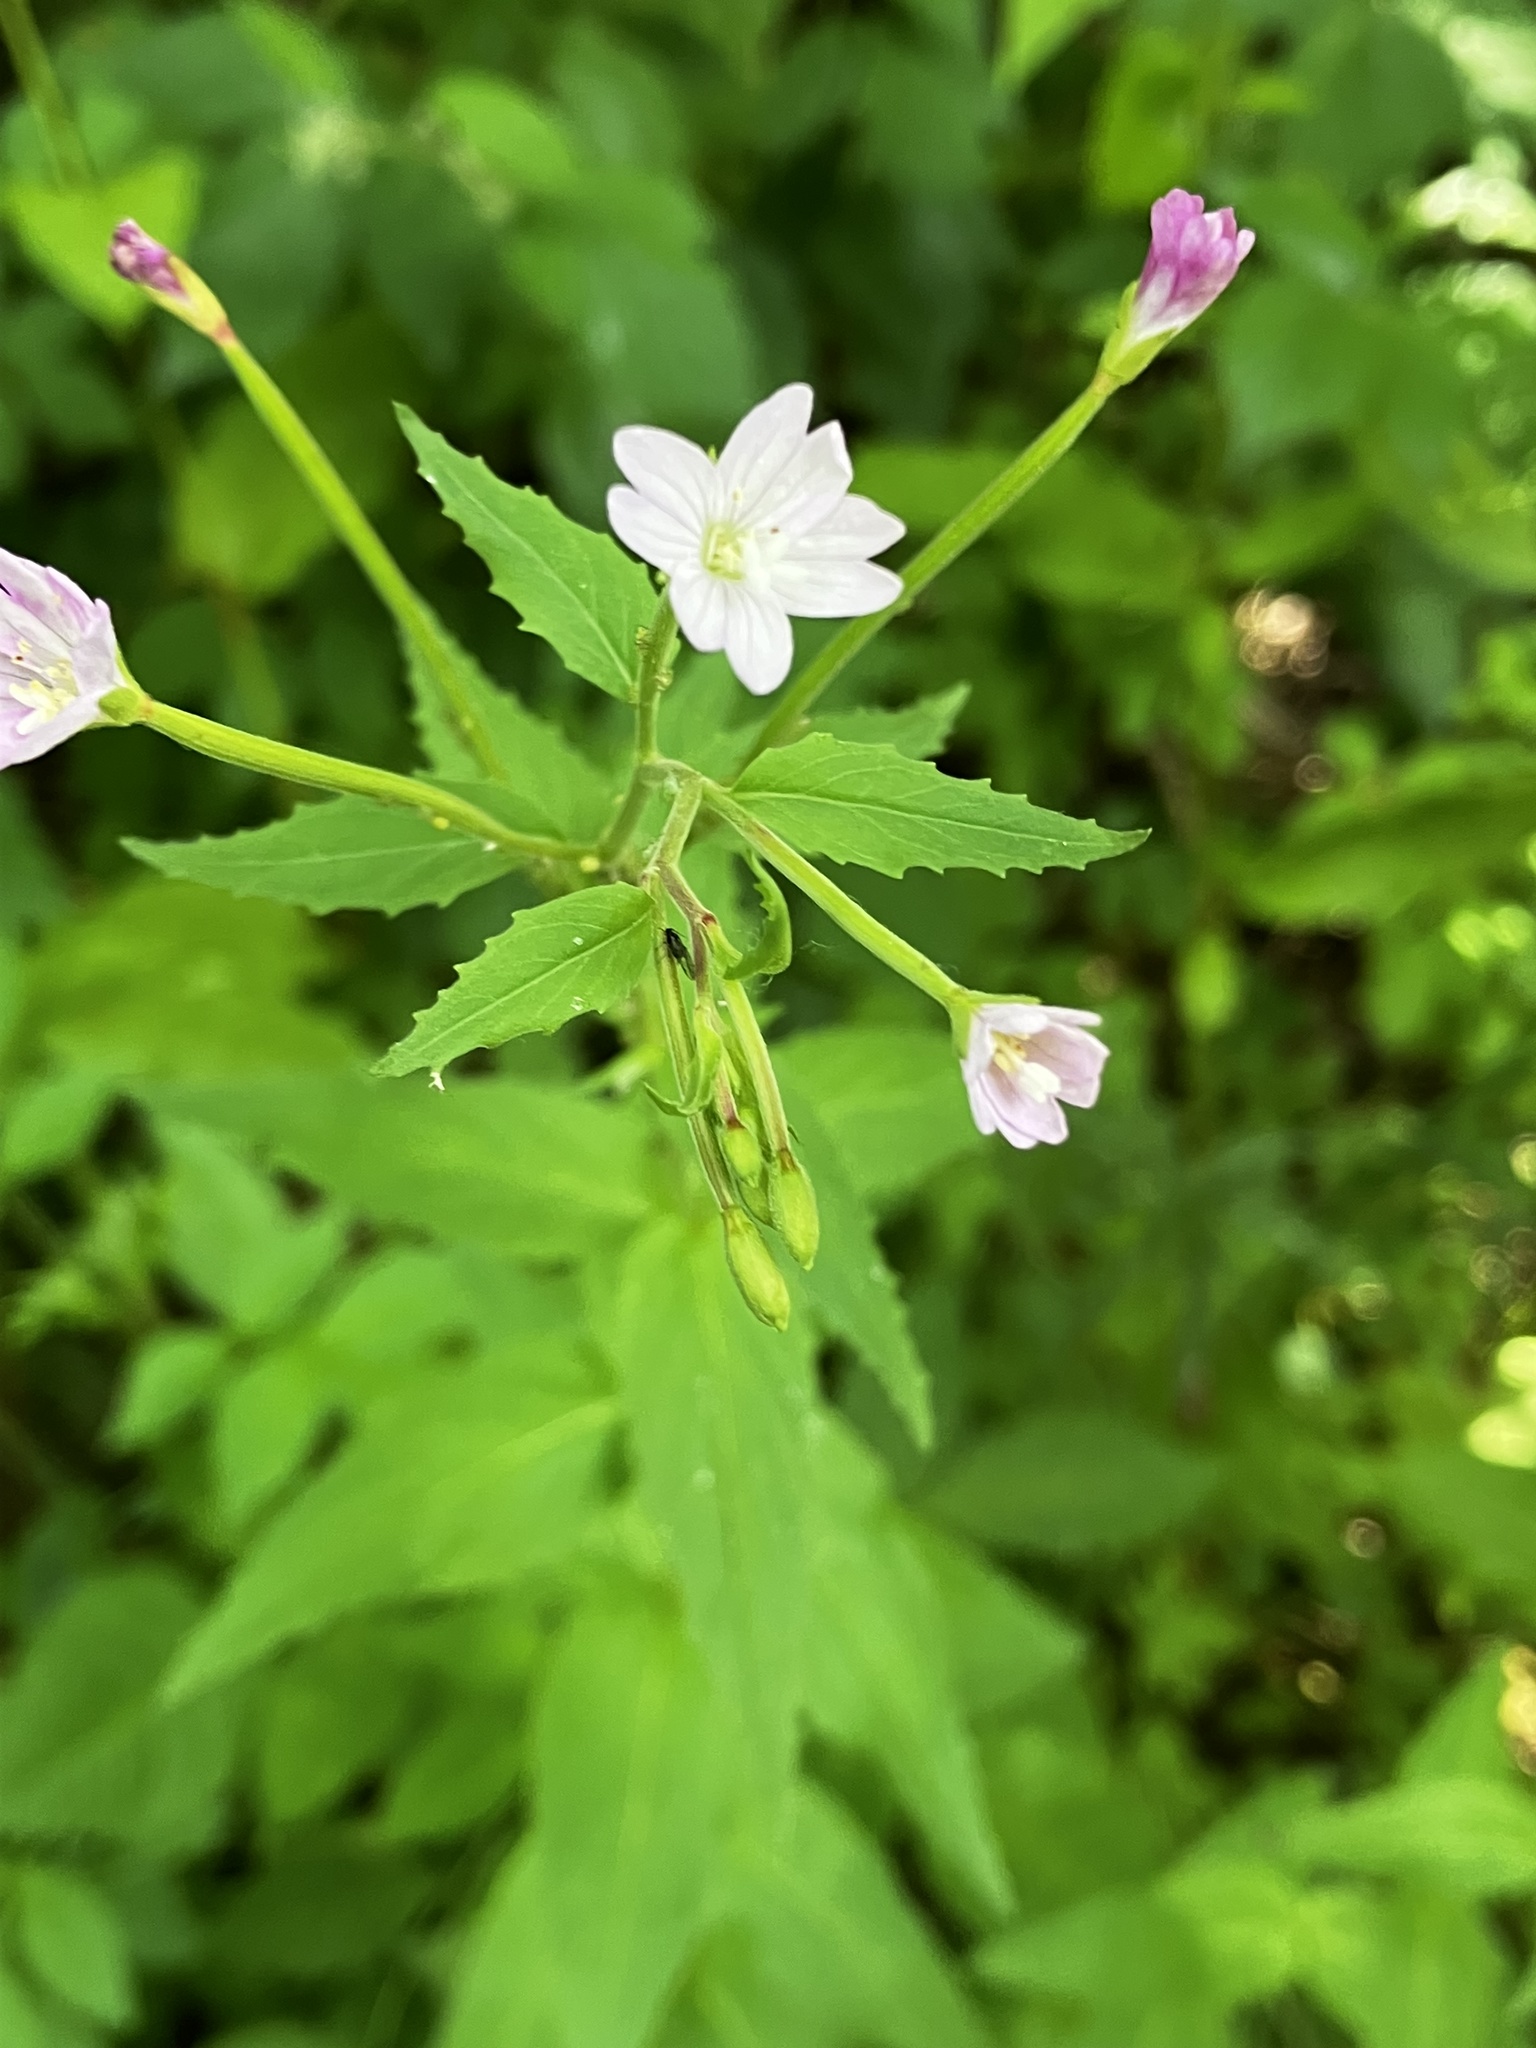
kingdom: Plantae
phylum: Tracheophyta
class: Magnoliopsida
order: Myrtales
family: Onagraceae
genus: Epilobium
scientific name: Epilobium montanum
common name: Broad-leaved willowherb
